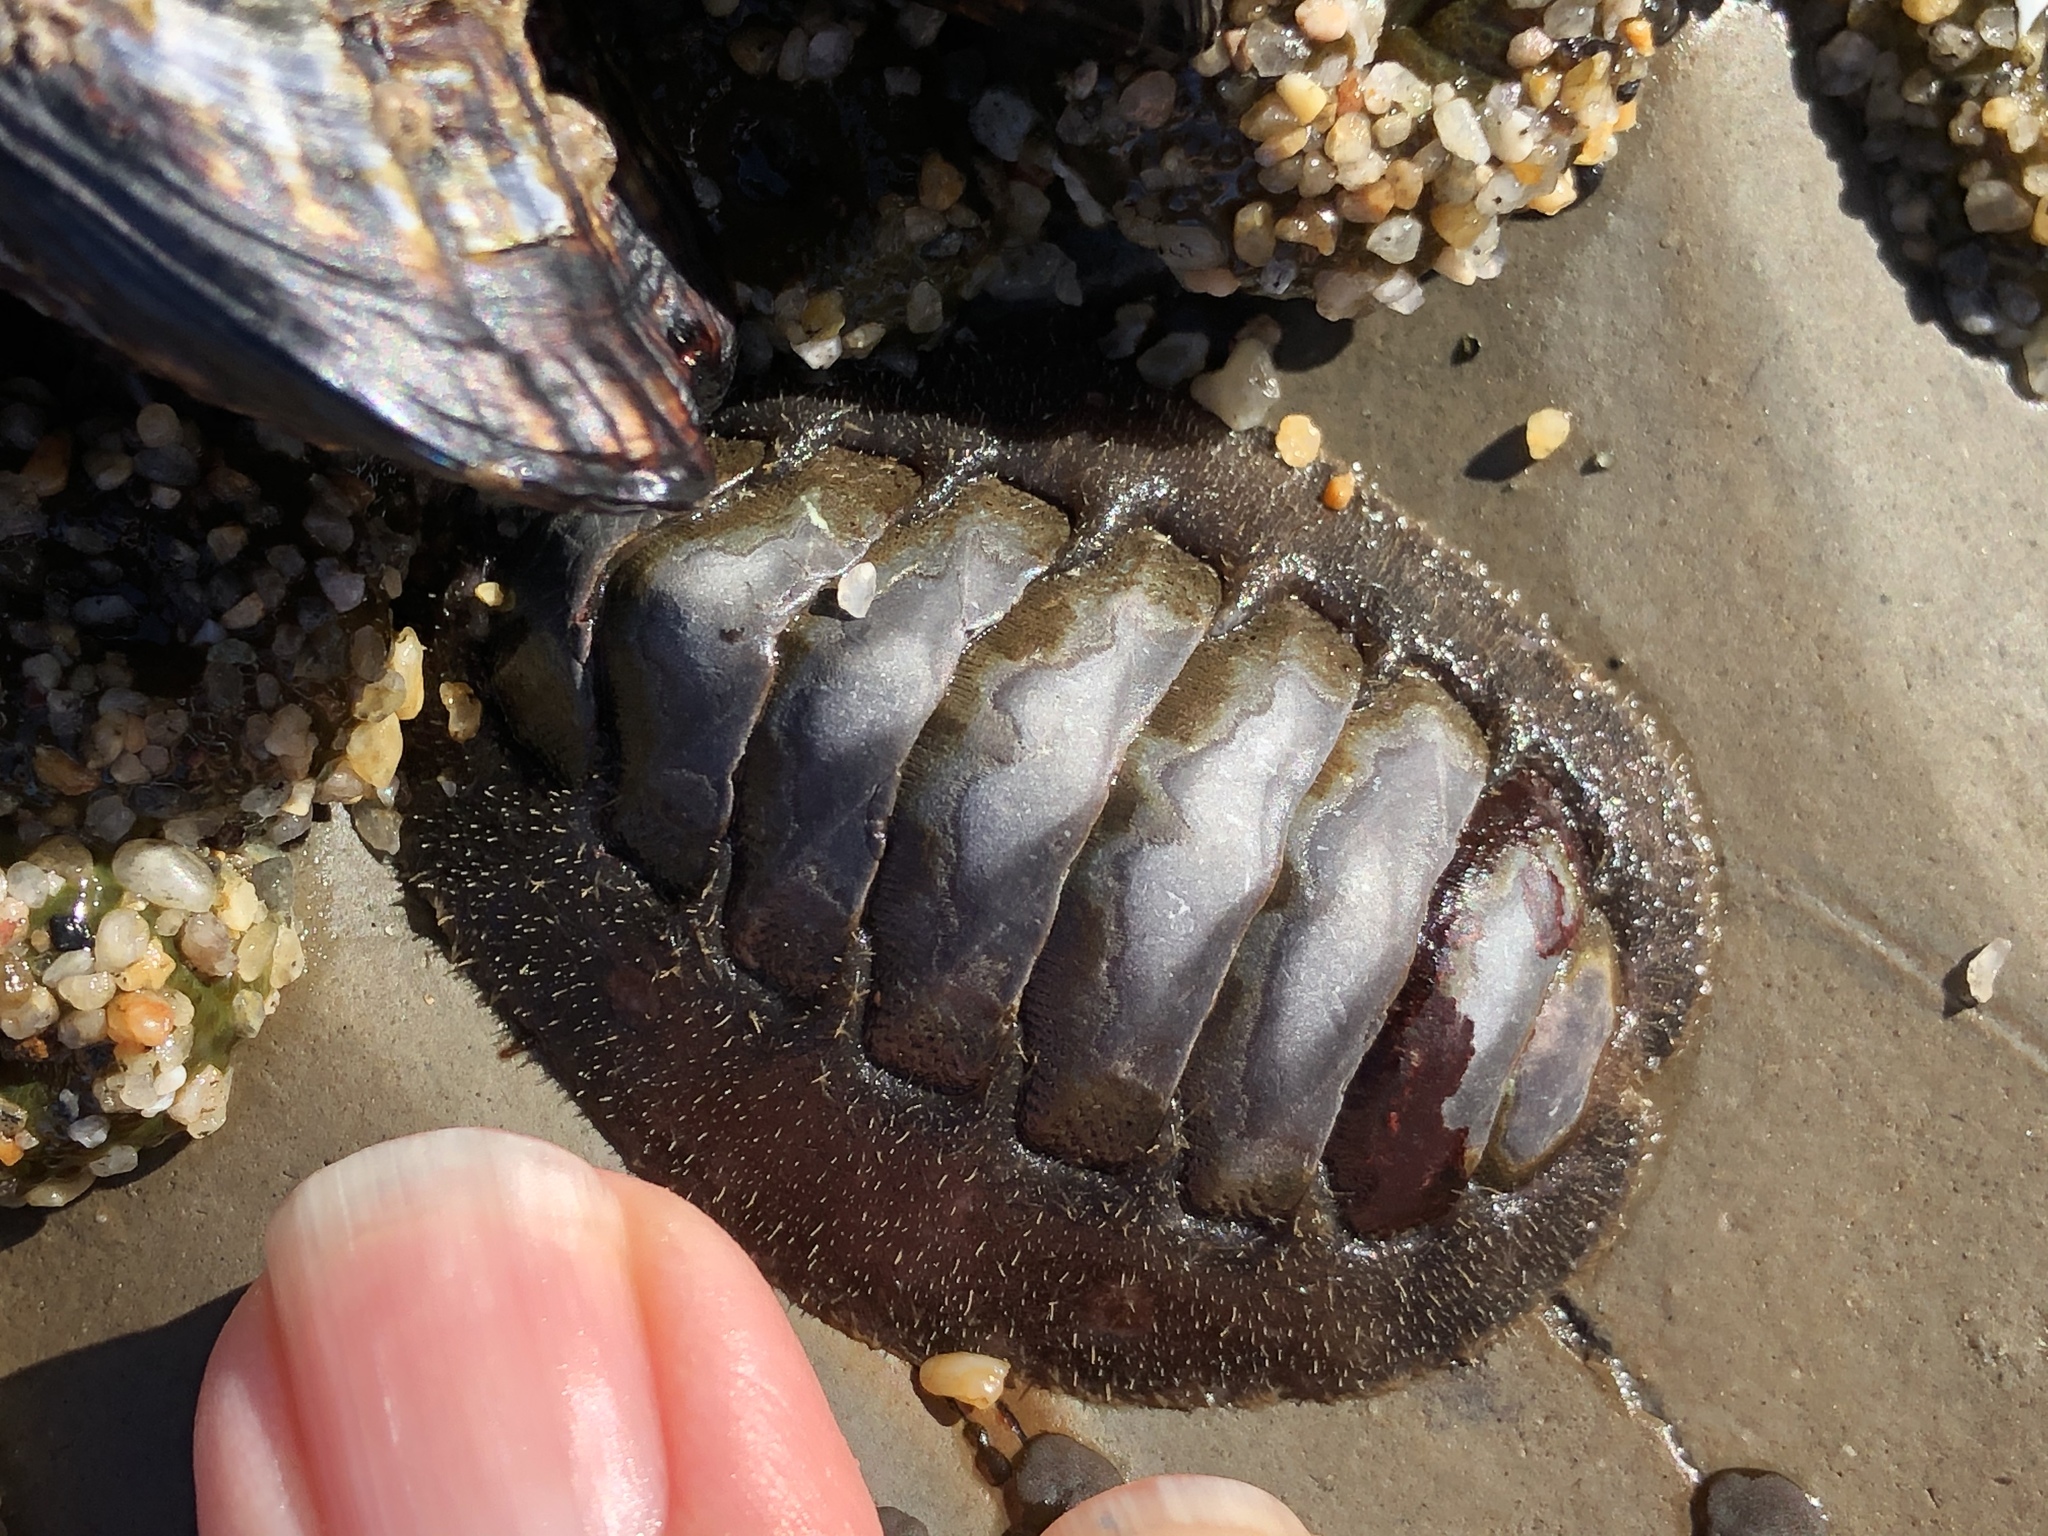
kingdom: Animalia
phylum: Mollusca
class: Polyplacophora
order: Chitonida
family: Mopaliidae
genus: Mopalia
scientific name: Mopalia hindsii
